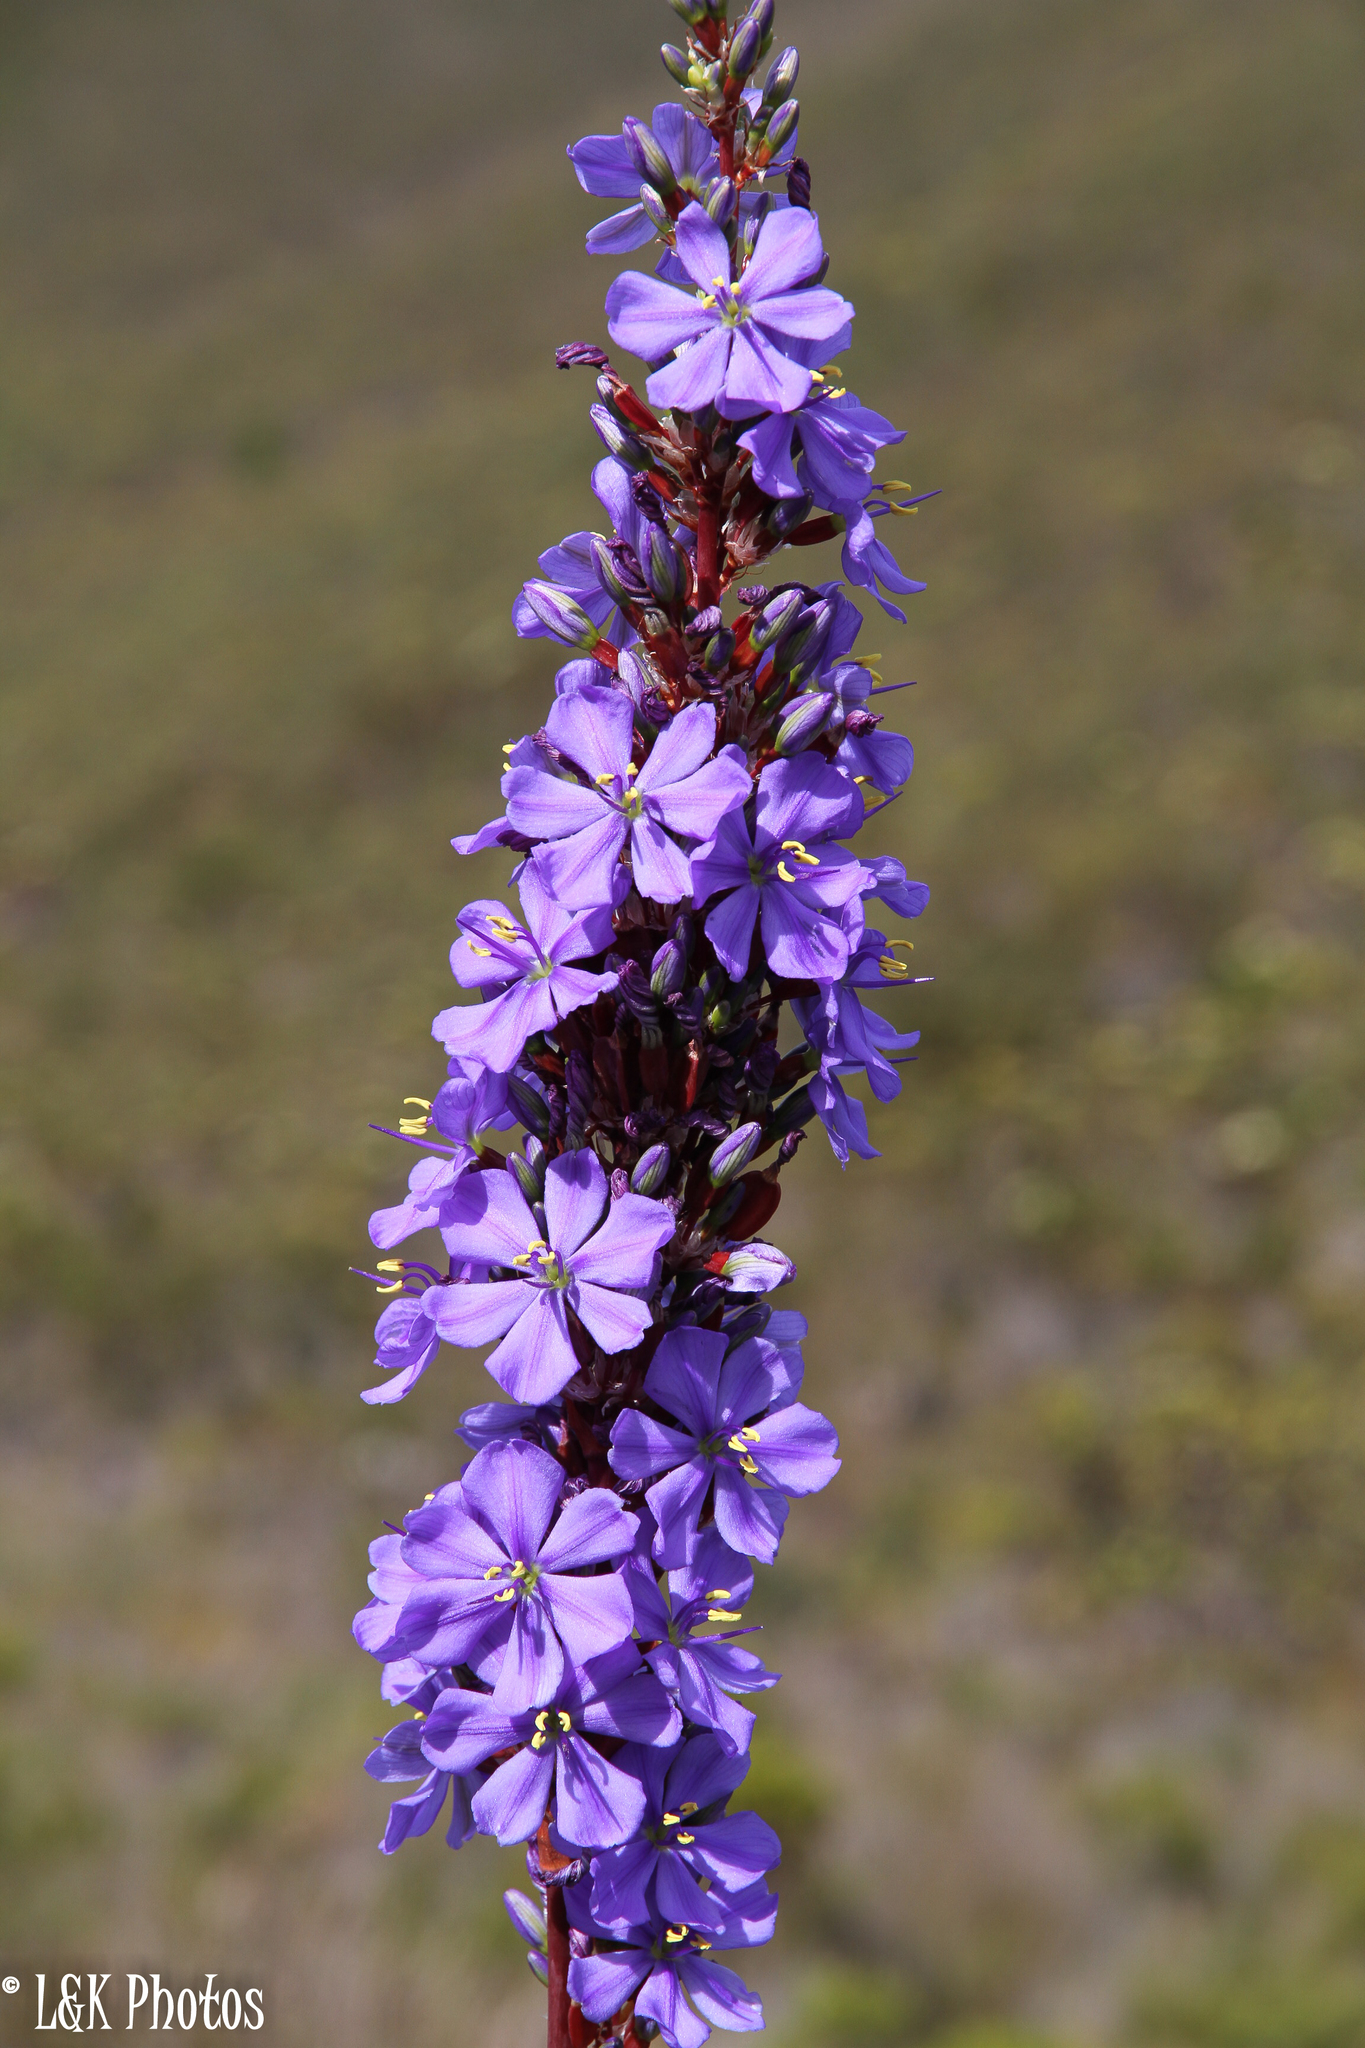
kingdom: Plantae
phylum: Tracheophyta
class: Liliopsida
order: Asparagales
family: Iridaceae
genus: Aristea
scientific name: Aristea capitata
